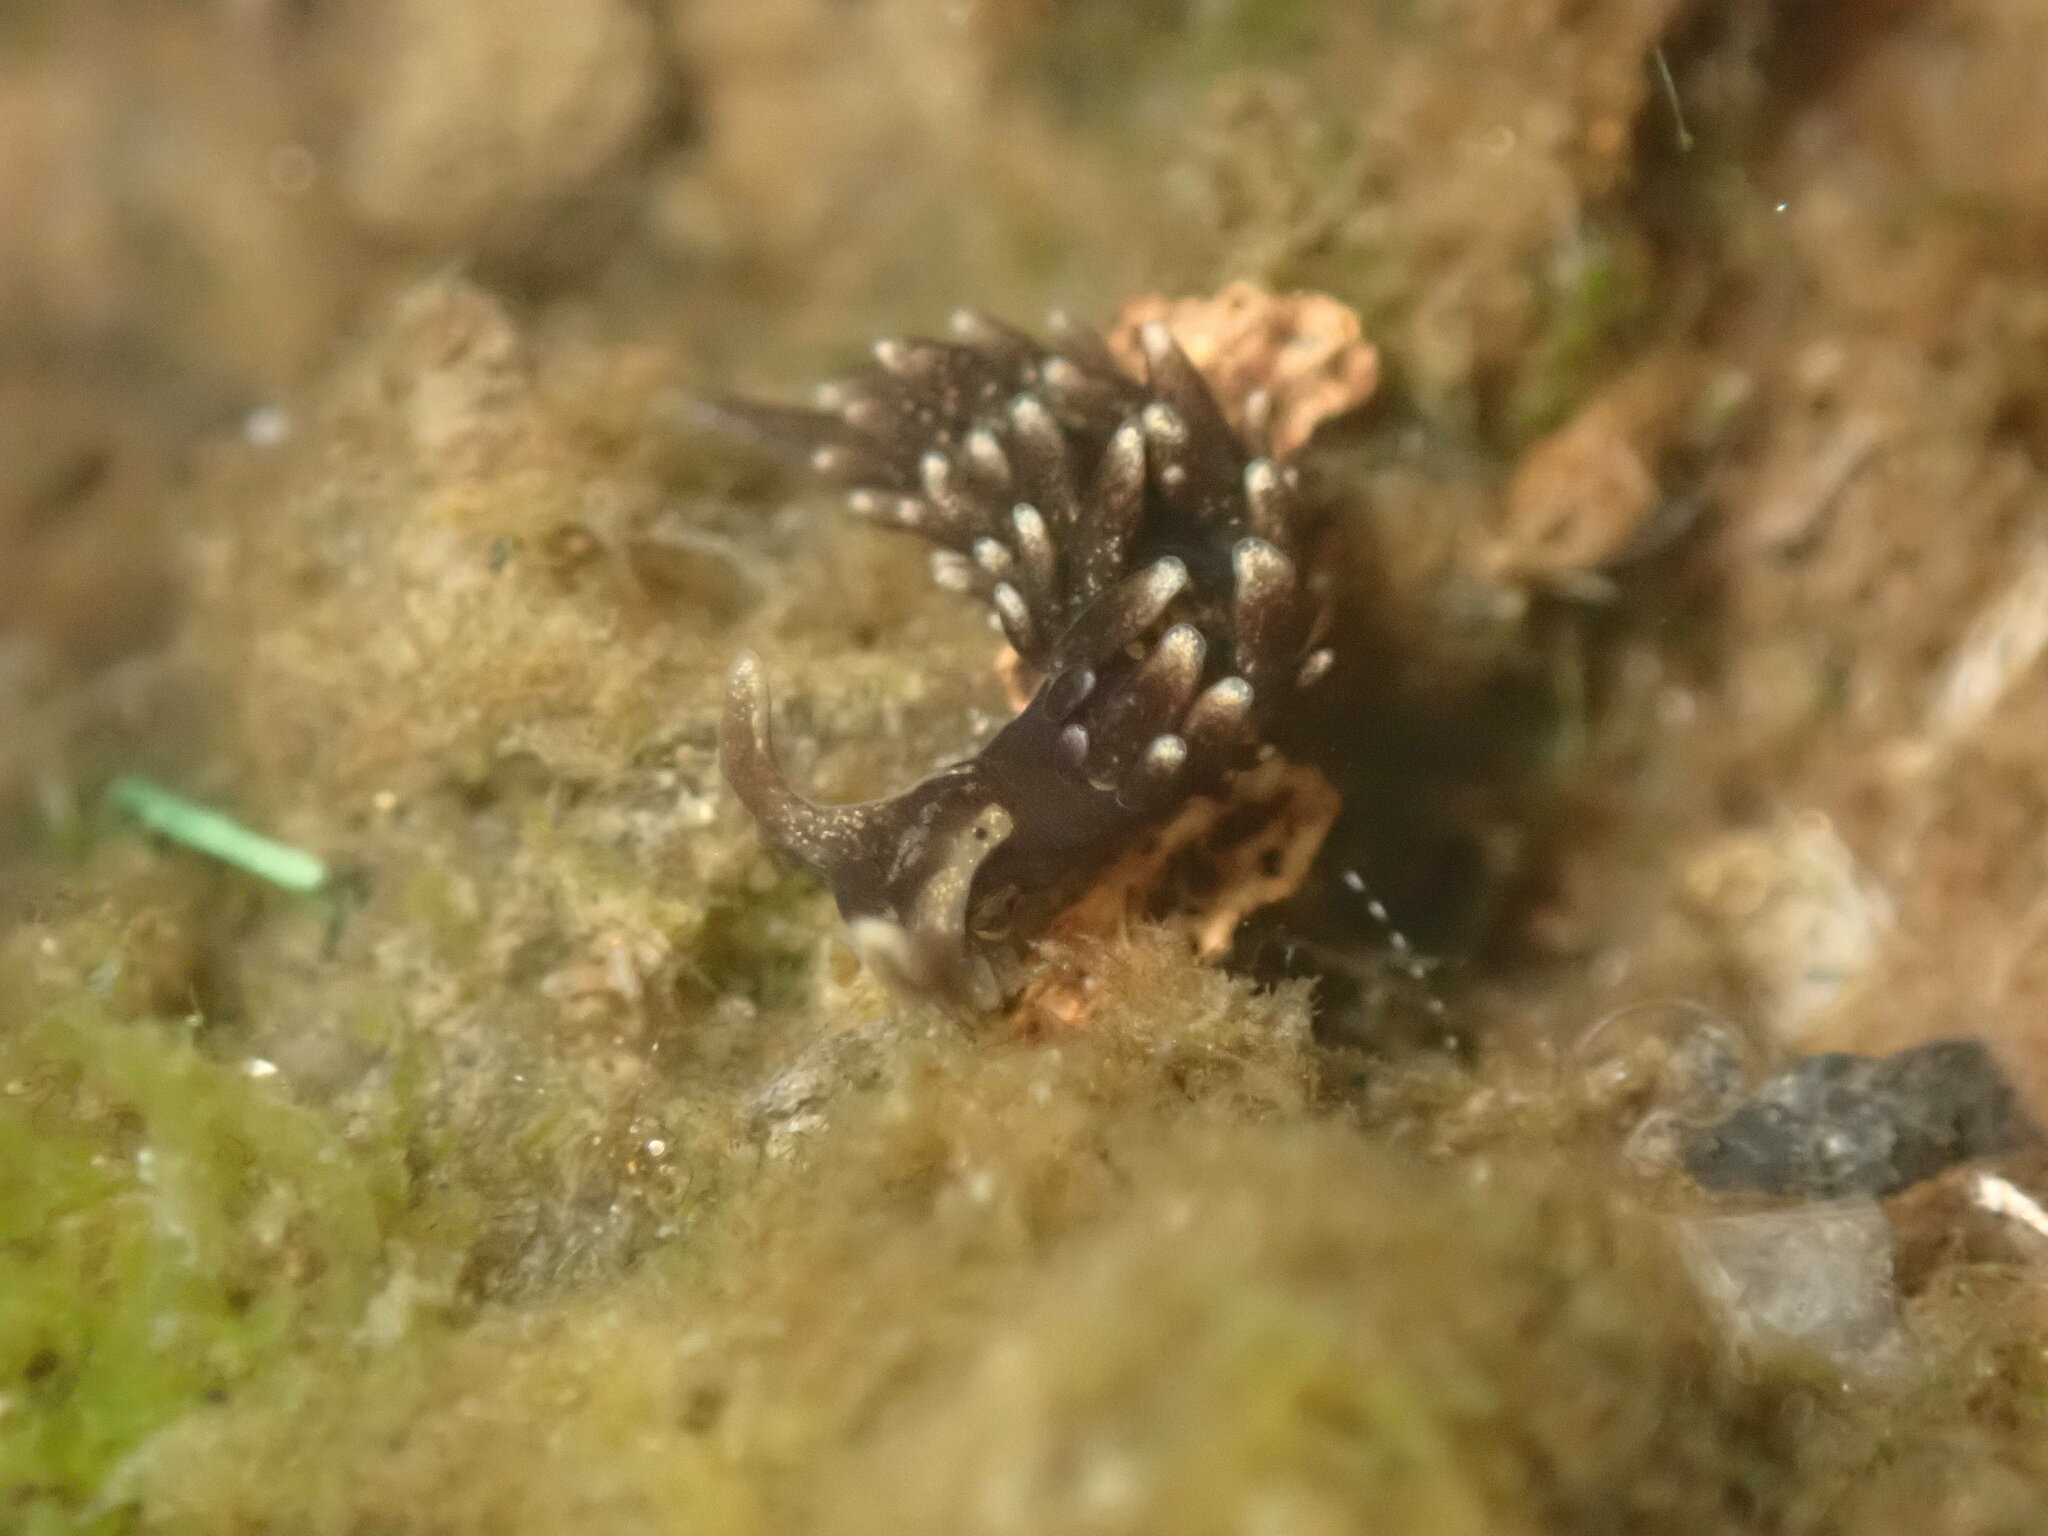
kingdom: Animalia
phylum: Mollusca
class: Gastropoda
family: Hermaeidae
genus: Aplysiopsis
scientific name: Aplysiopsis enteromorphae
